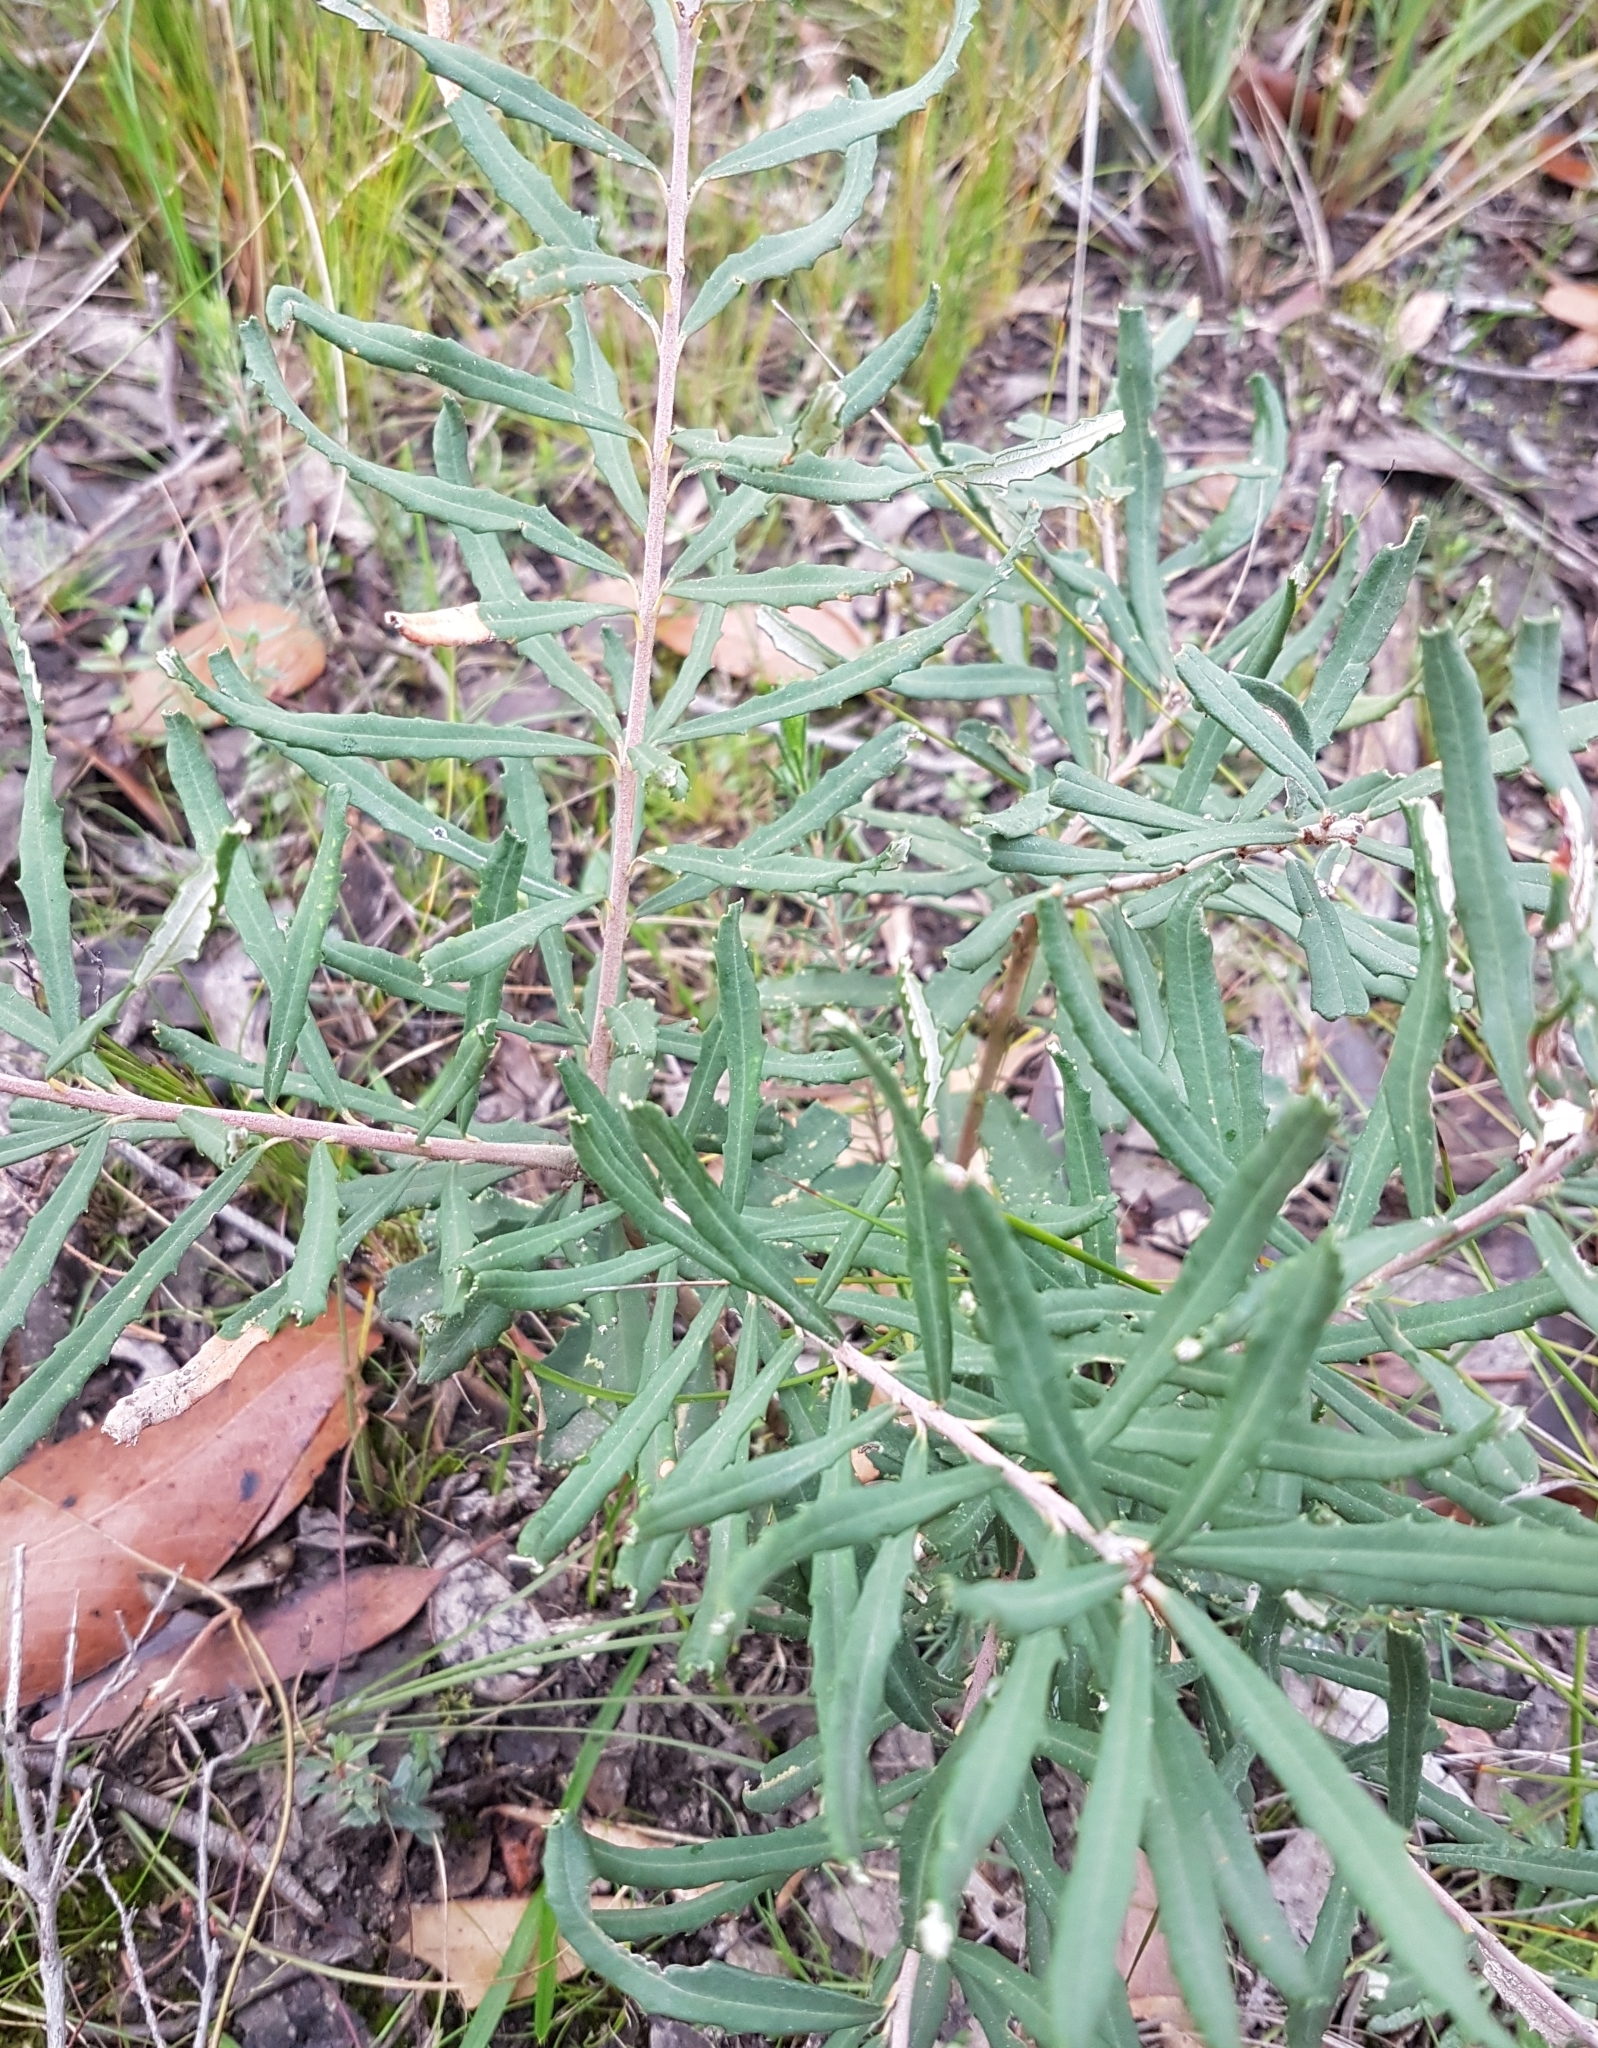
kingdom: Plantae
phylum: Tracheophyta
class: Magnoliopsida
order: Proteales
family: Proteaceae
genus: Banksia
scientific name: Banksia marginata
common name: Silver banksia
